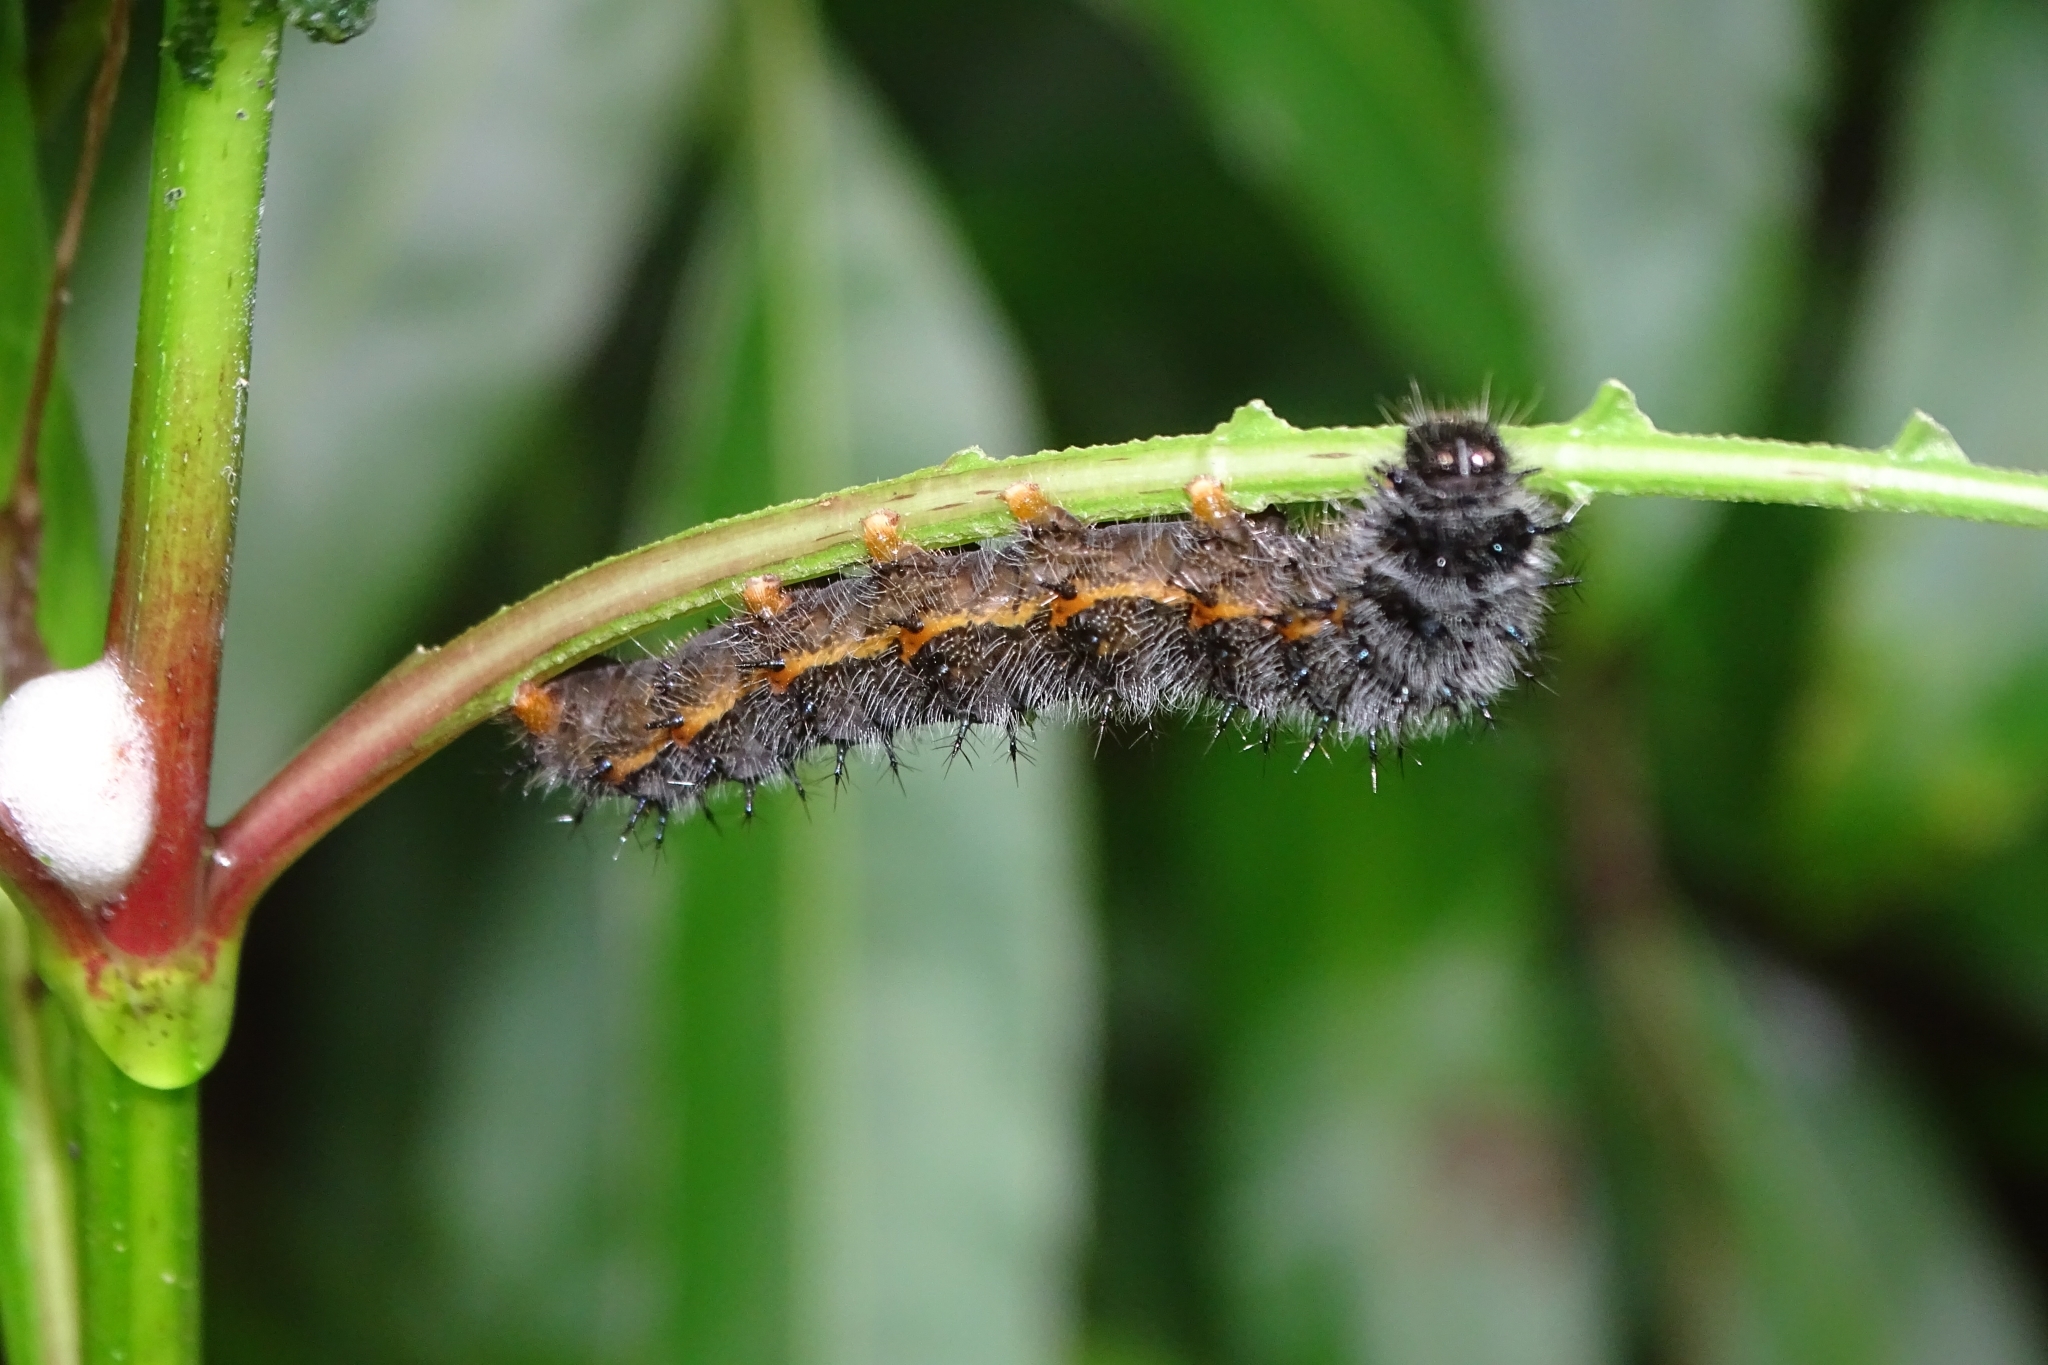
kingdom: Animalia
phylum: Arthropoda
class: Insecta
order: Lepidoptera
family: Nymphalidae
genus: Junonia
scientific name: Junonia atlites
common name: Grey pansy
